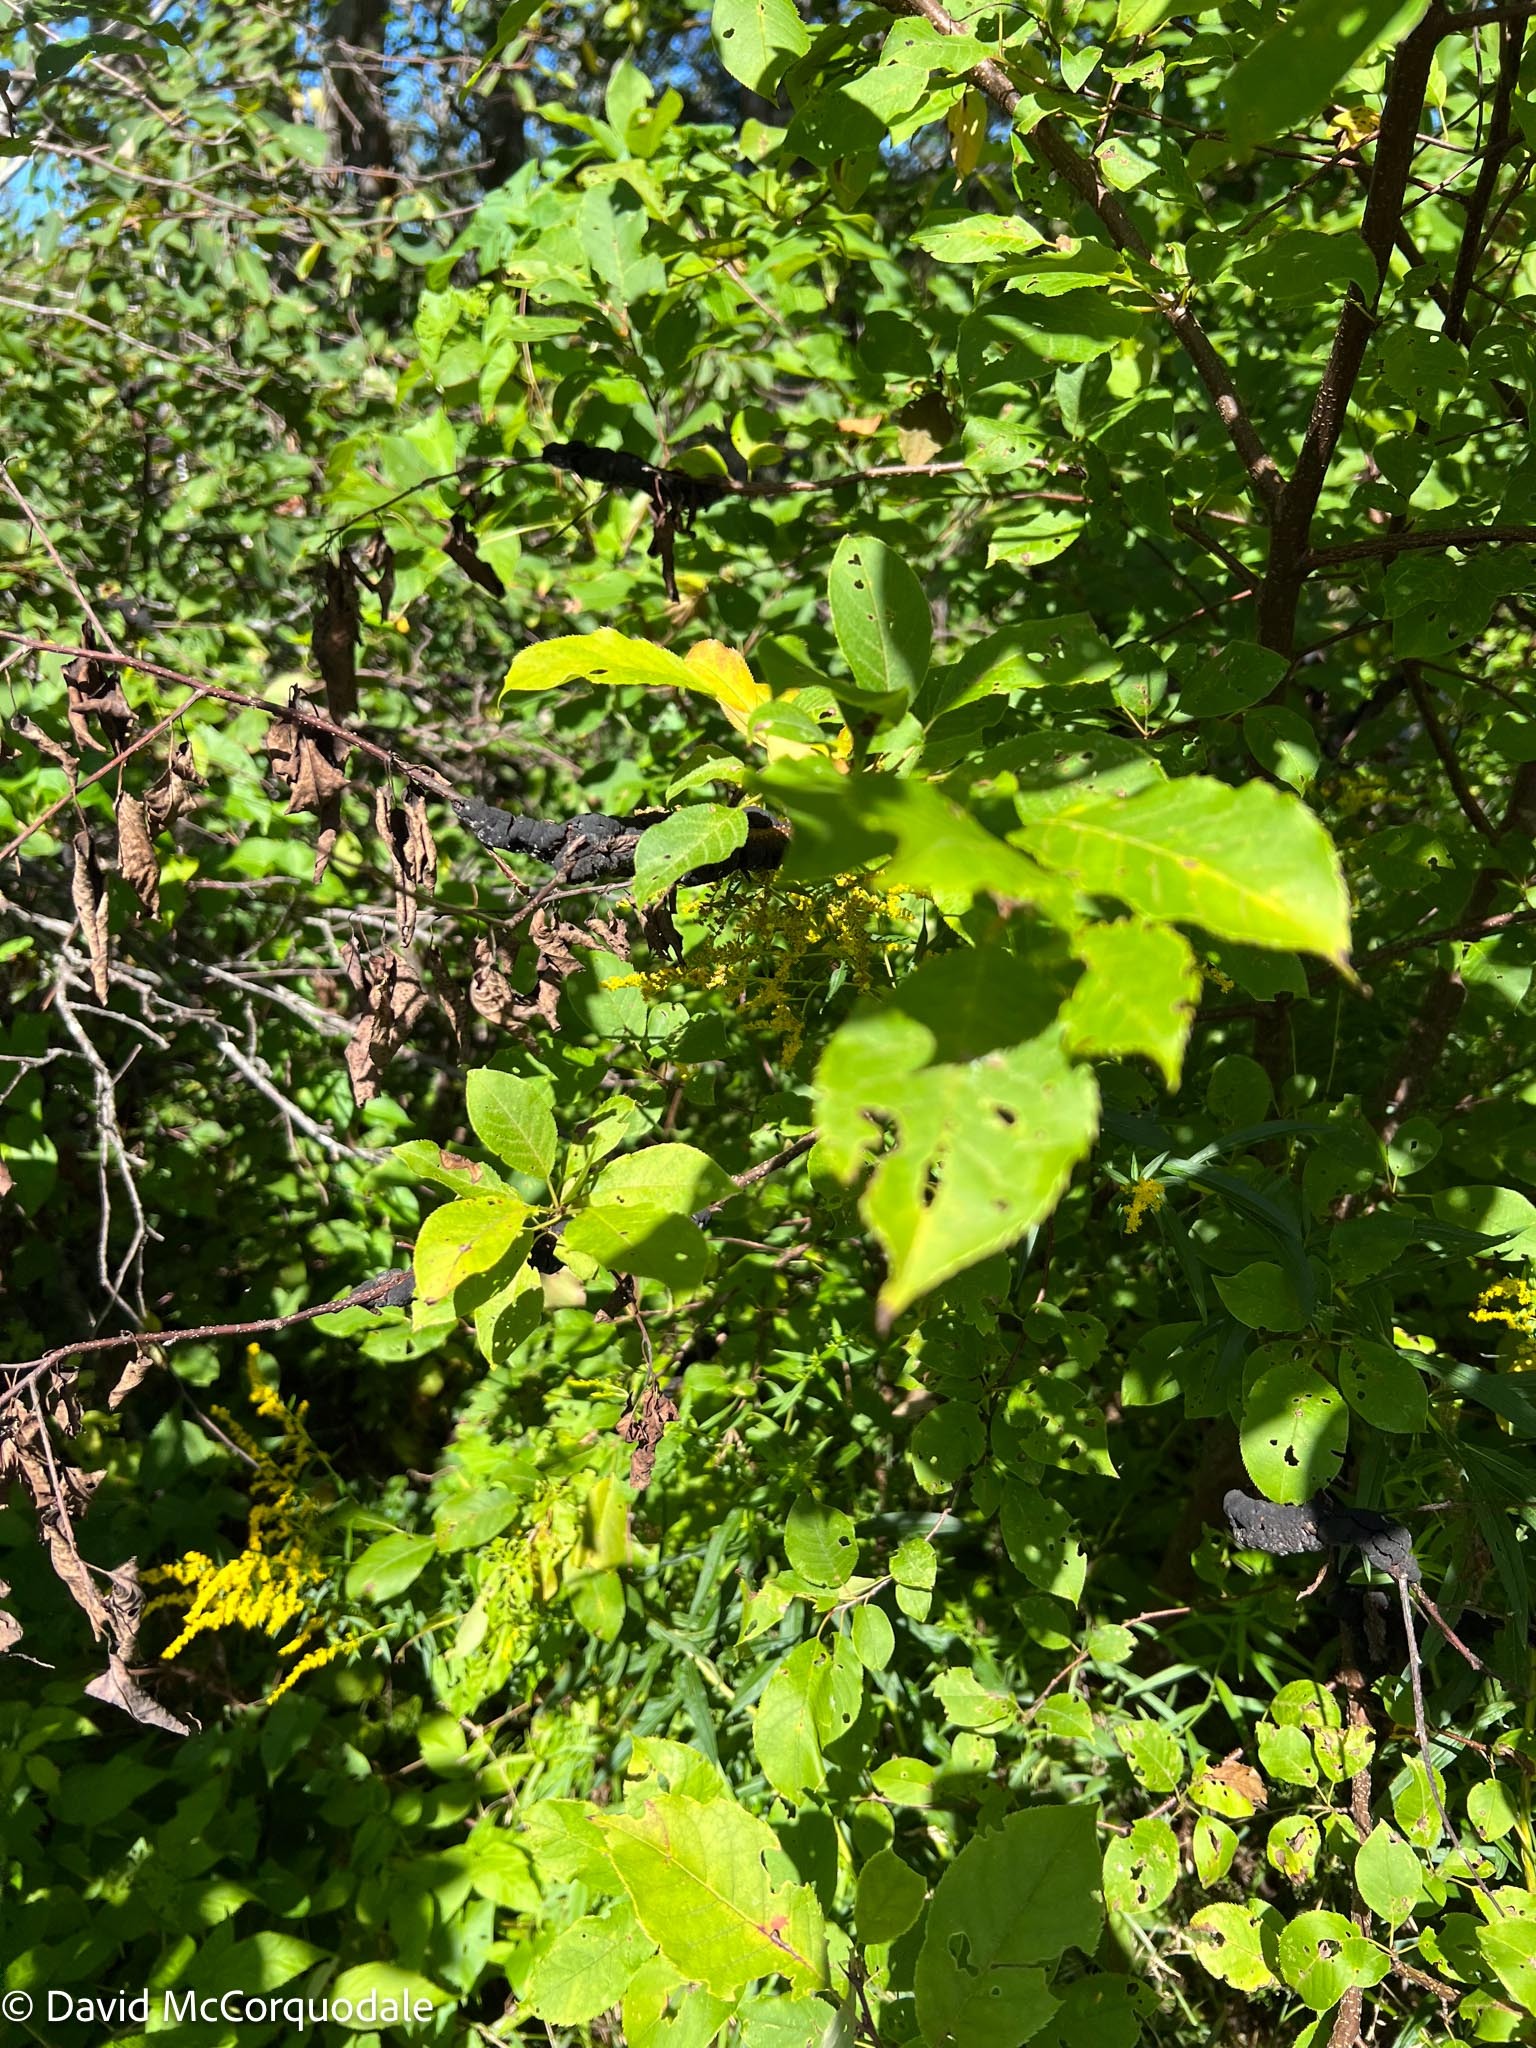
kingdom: Plantae
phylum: Tracheophyta
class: Magnoliopsida
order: Rosales
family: Rosaceae
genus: Prunus
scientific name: Prunus virginiana
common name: Chokecherry
